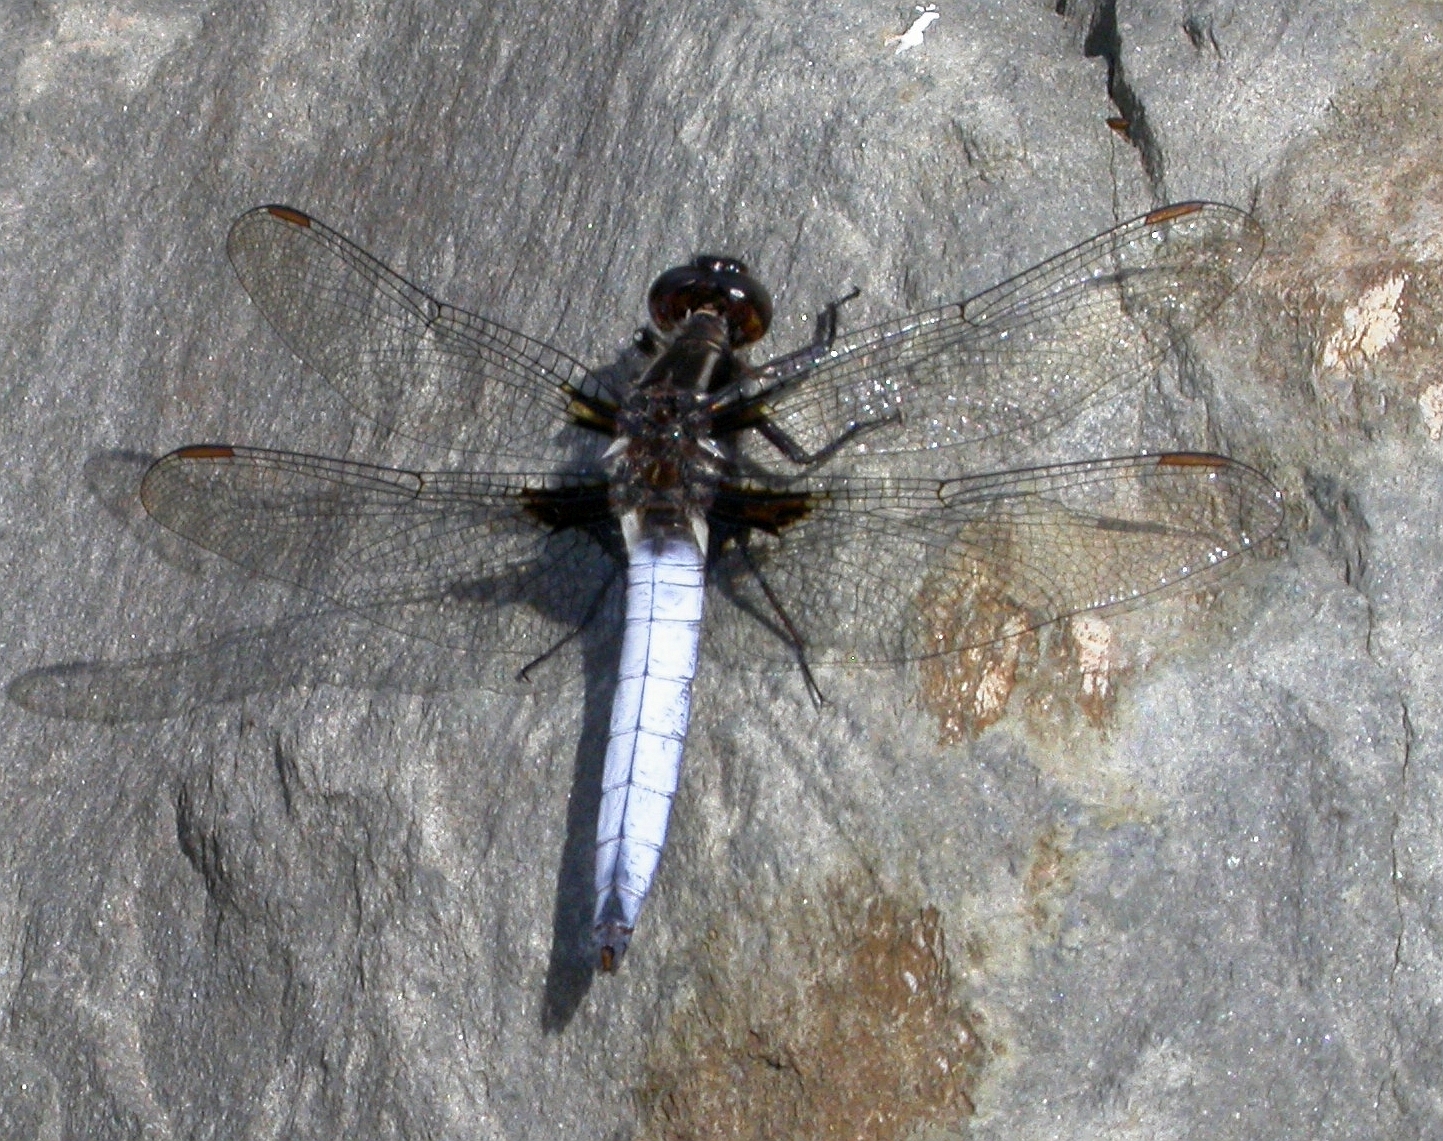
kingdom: Animalia
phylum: Arthropoda
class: Insecta
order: Odonata
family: Libellulidae
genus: Ladona
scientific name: Ladona exusta
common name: Libellule embrasée
